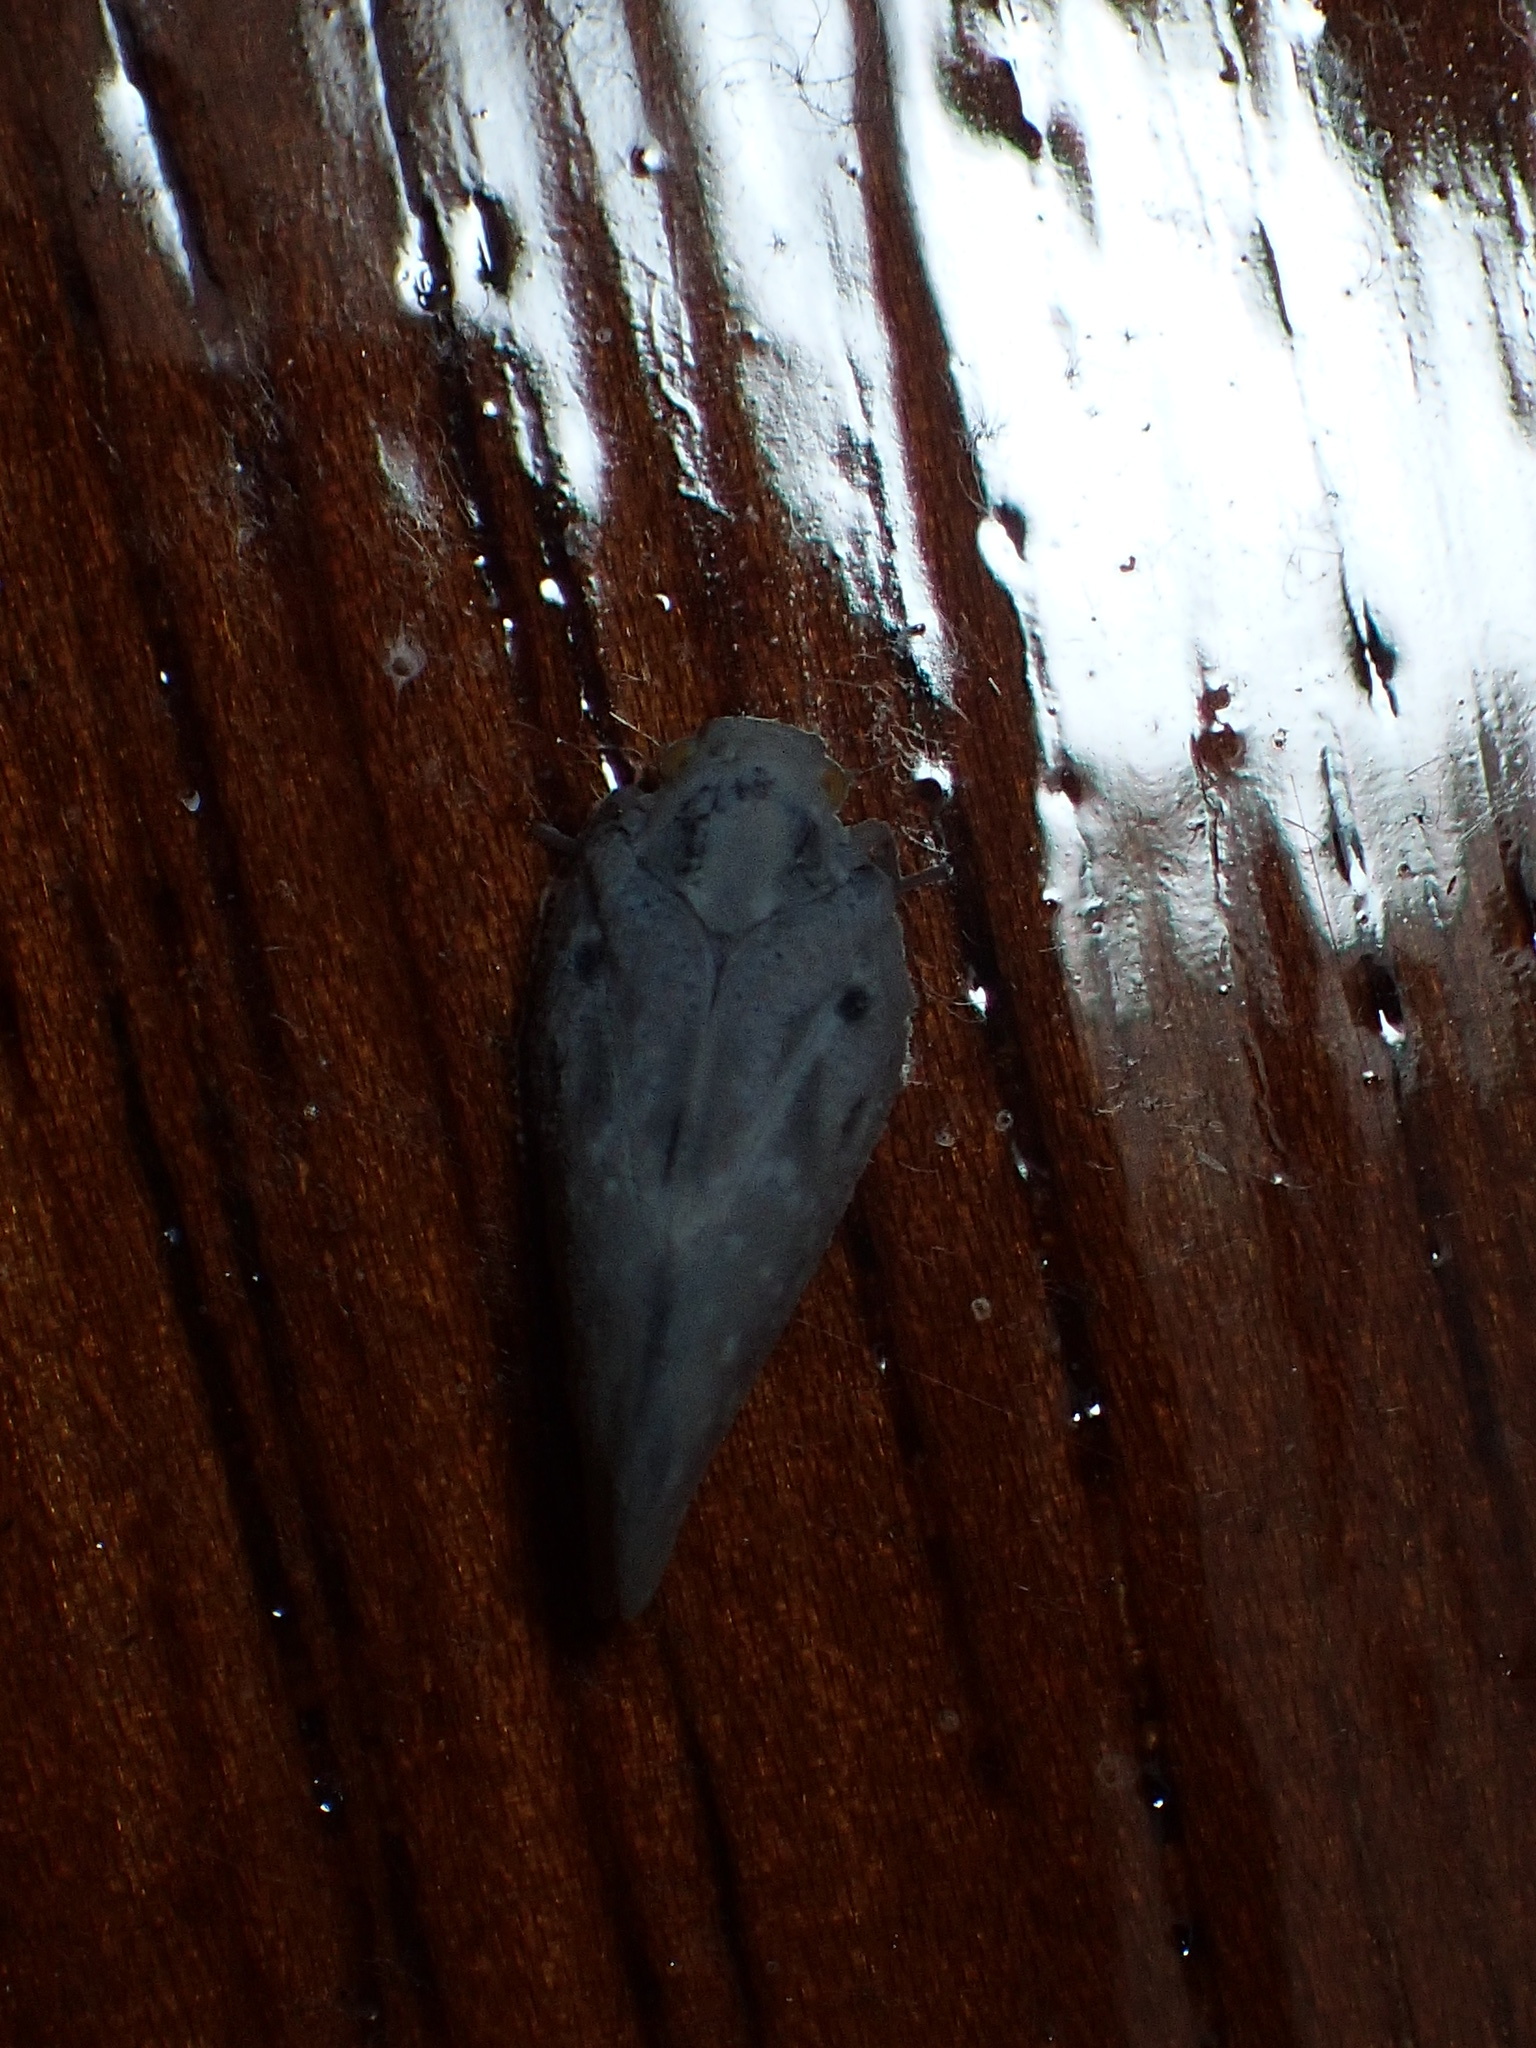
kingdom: Animalia
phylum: Arthropoda
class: Insecta
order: Hemiptera
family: Flatidae
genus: Metcalfa
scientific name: Metcalfa pruinosa
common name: Citrus flatid planthopper
